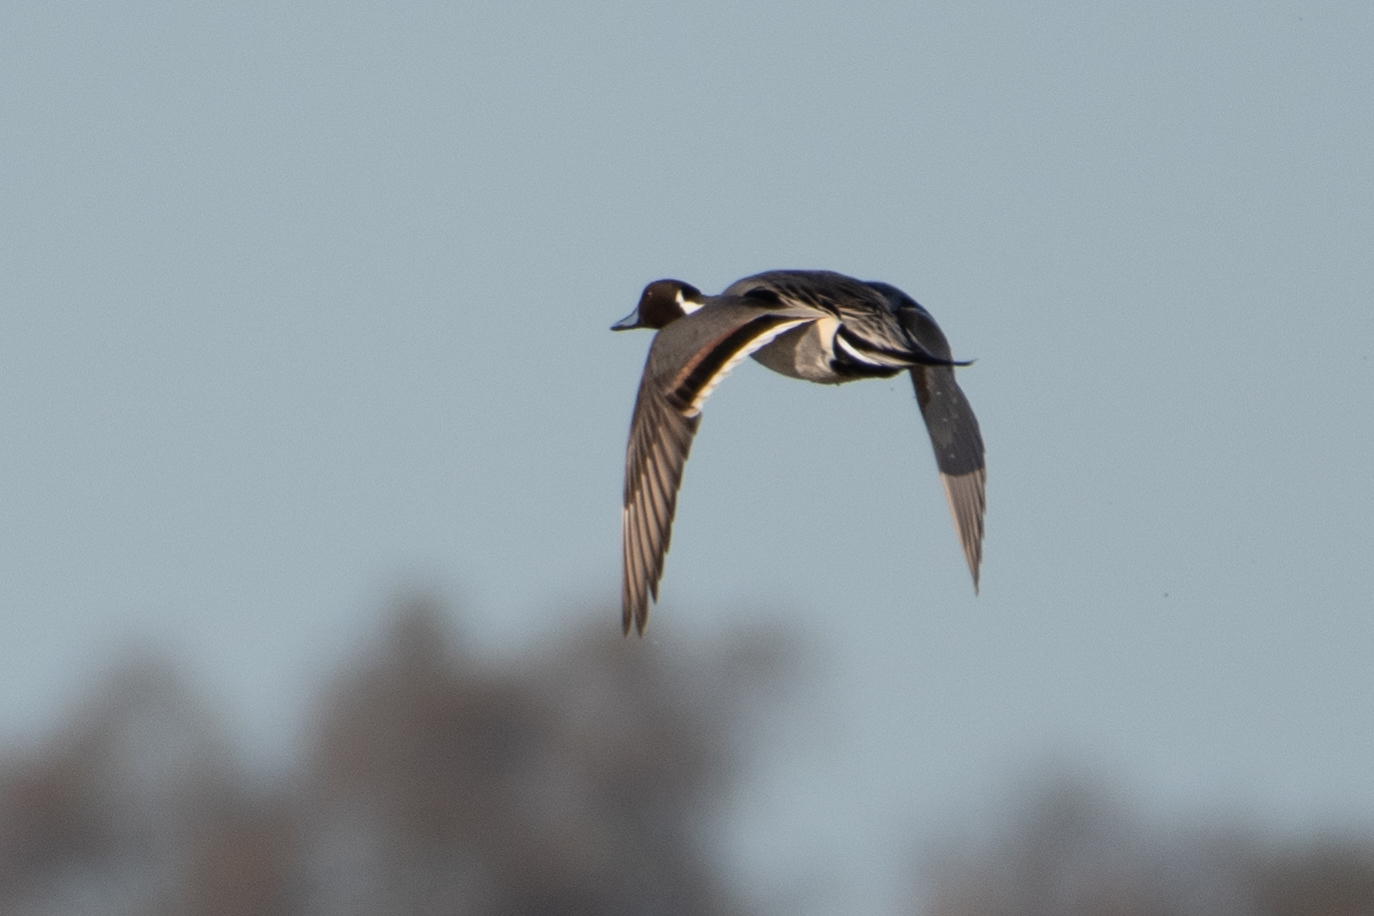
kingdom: Animalia
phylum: Chordata
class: Aves
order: Anseriformes
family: Anatidae
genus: Anas
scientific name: Anas acuta
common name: Northern pintail
